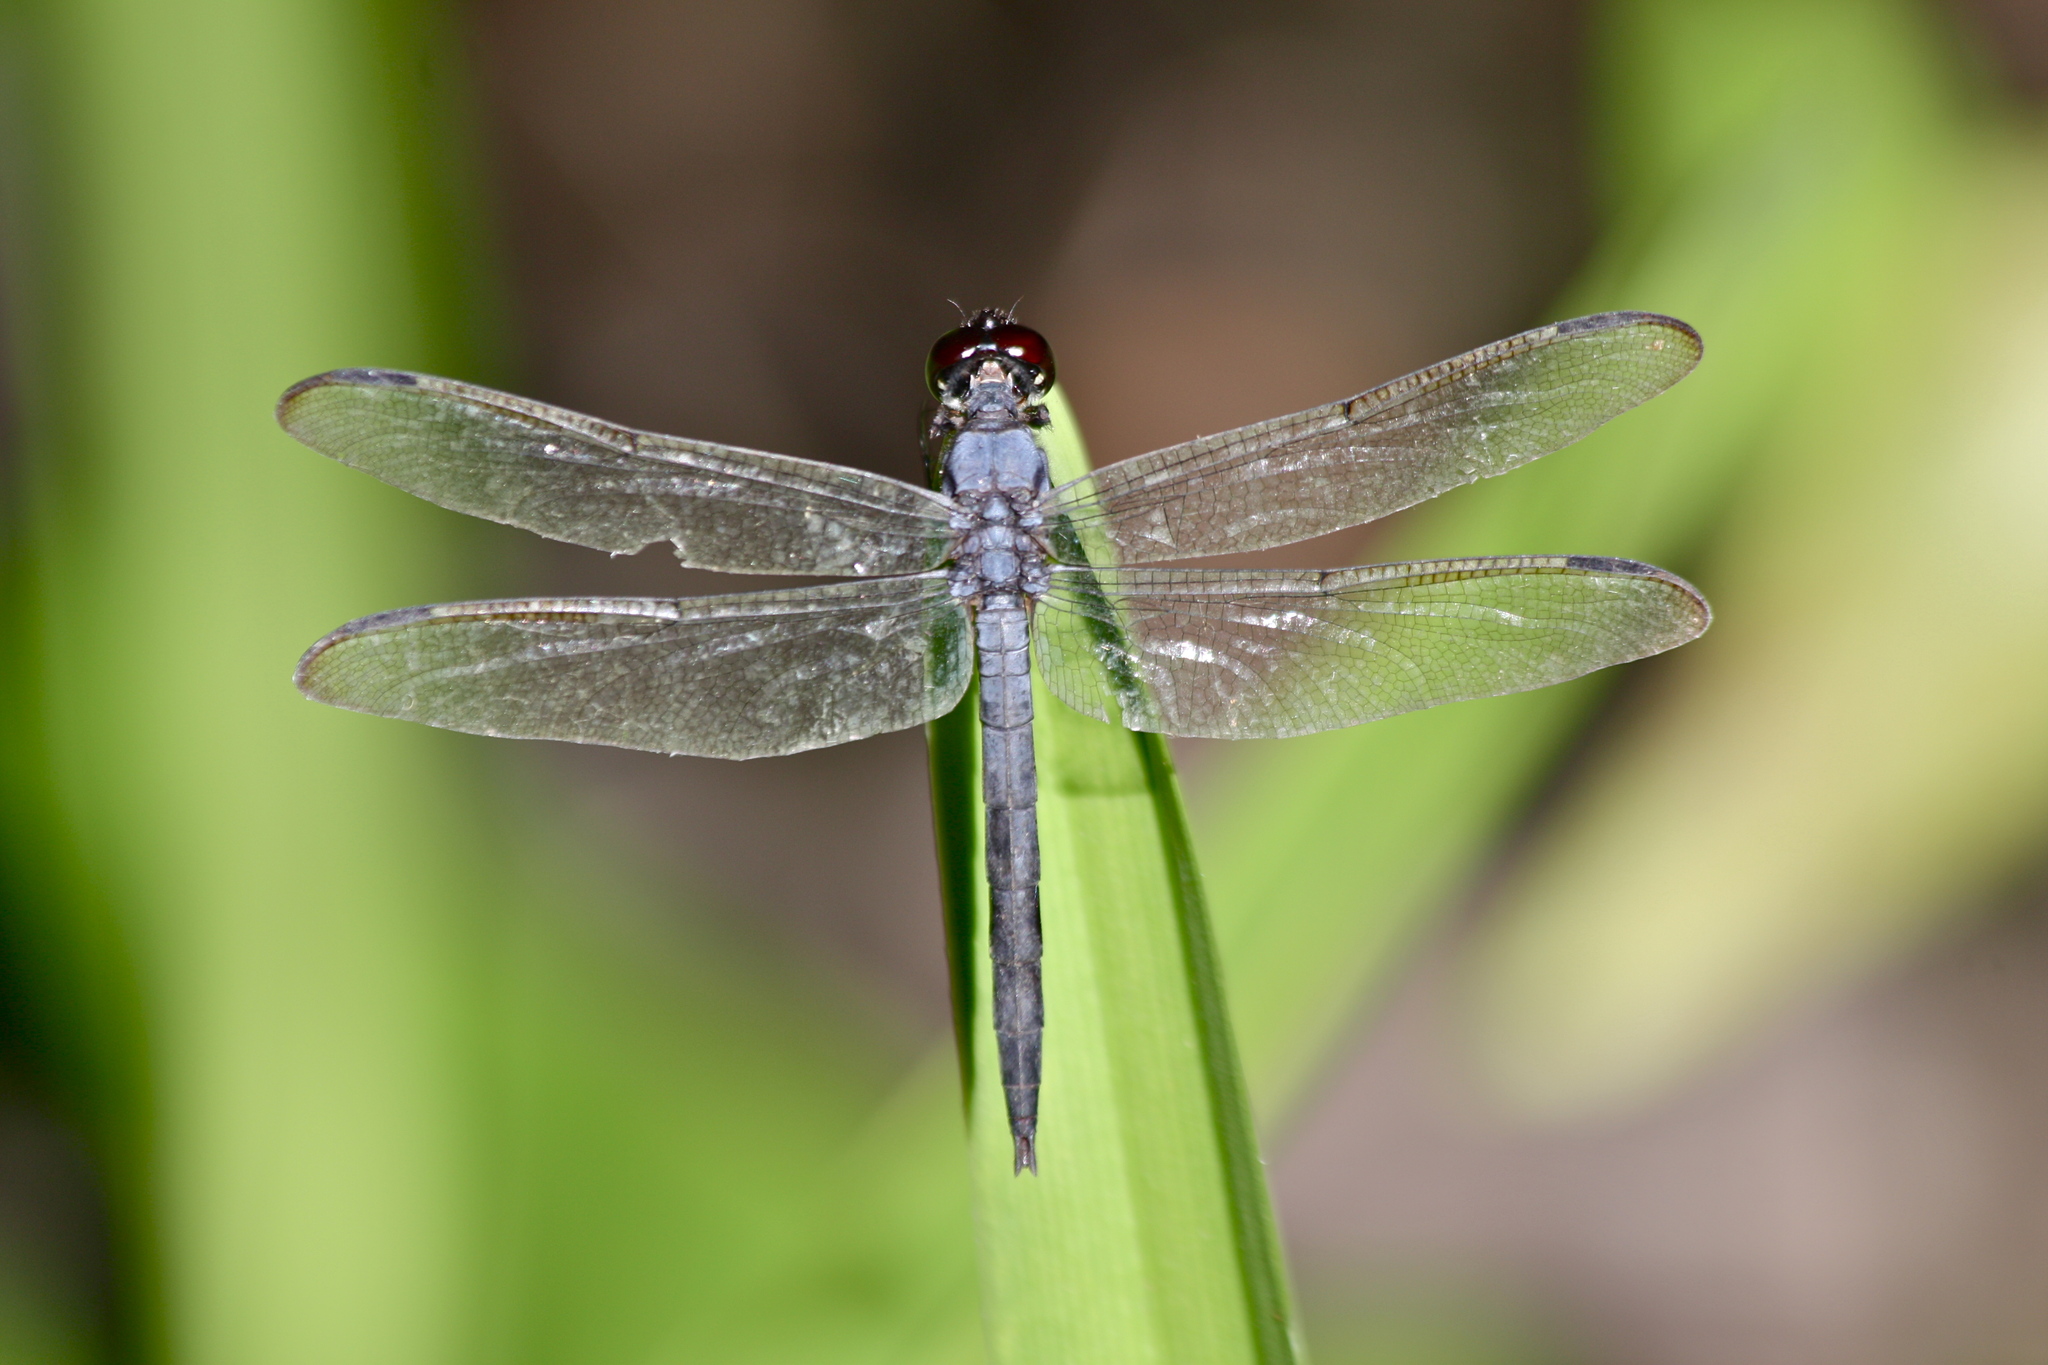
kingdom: Animalia
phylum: Arthropoda
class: Insecta
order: Odonata
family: Libellulidae
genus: Libellula
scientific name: Libellula incesta
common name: Slaty skimmer
